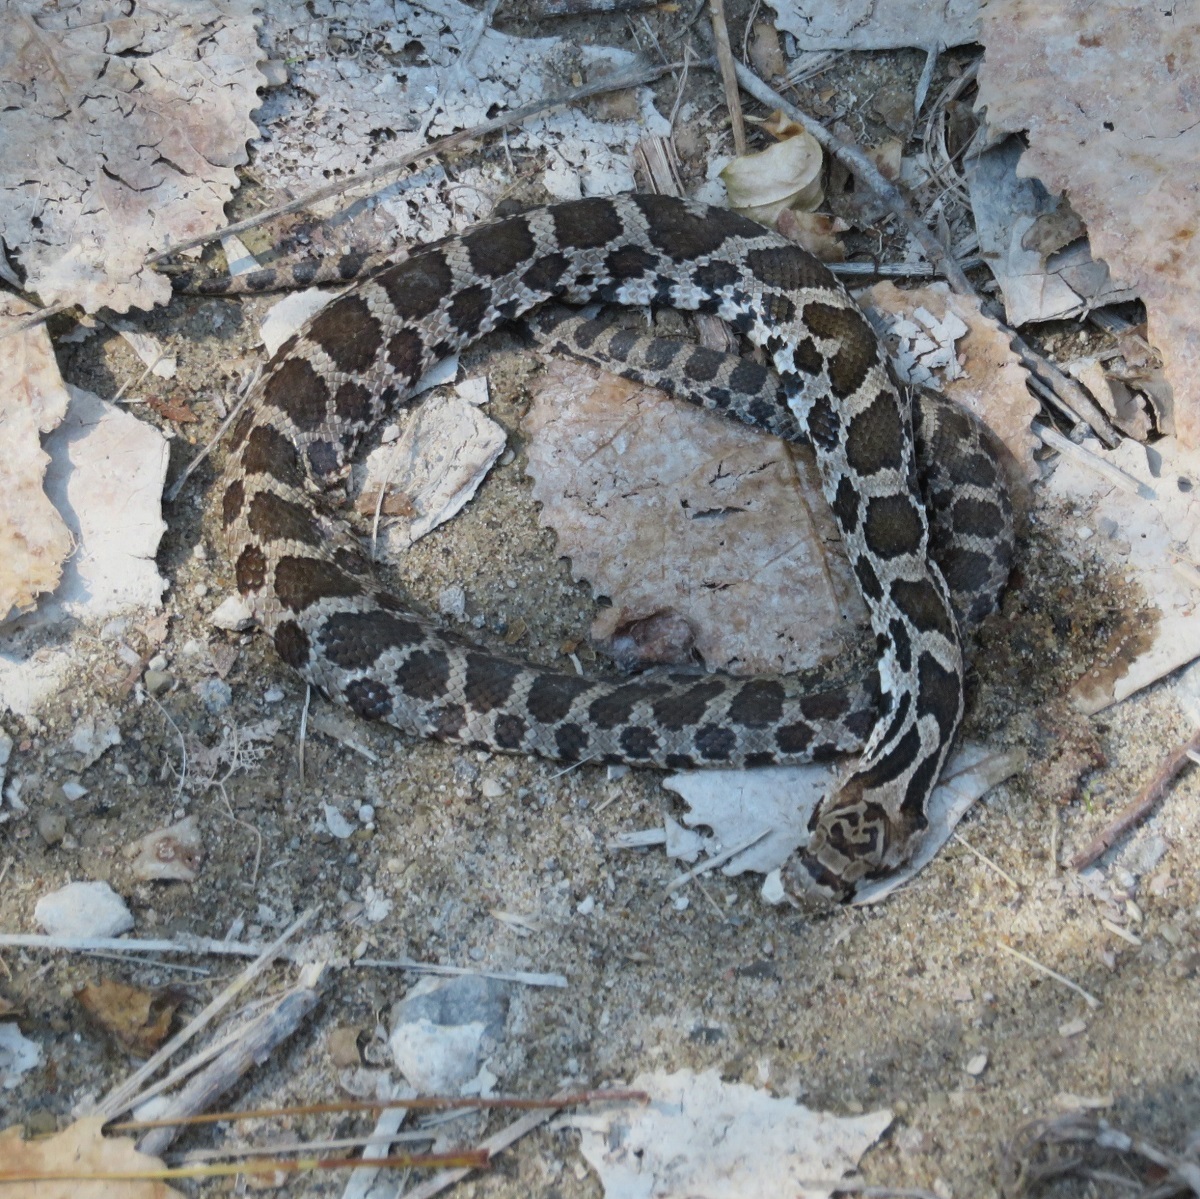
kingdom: Animalia
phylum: Chordata
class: Squamata
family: Colubridae
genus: Pantherophis
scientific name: Pantherophis vulpinus
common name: Eastern fox snake
